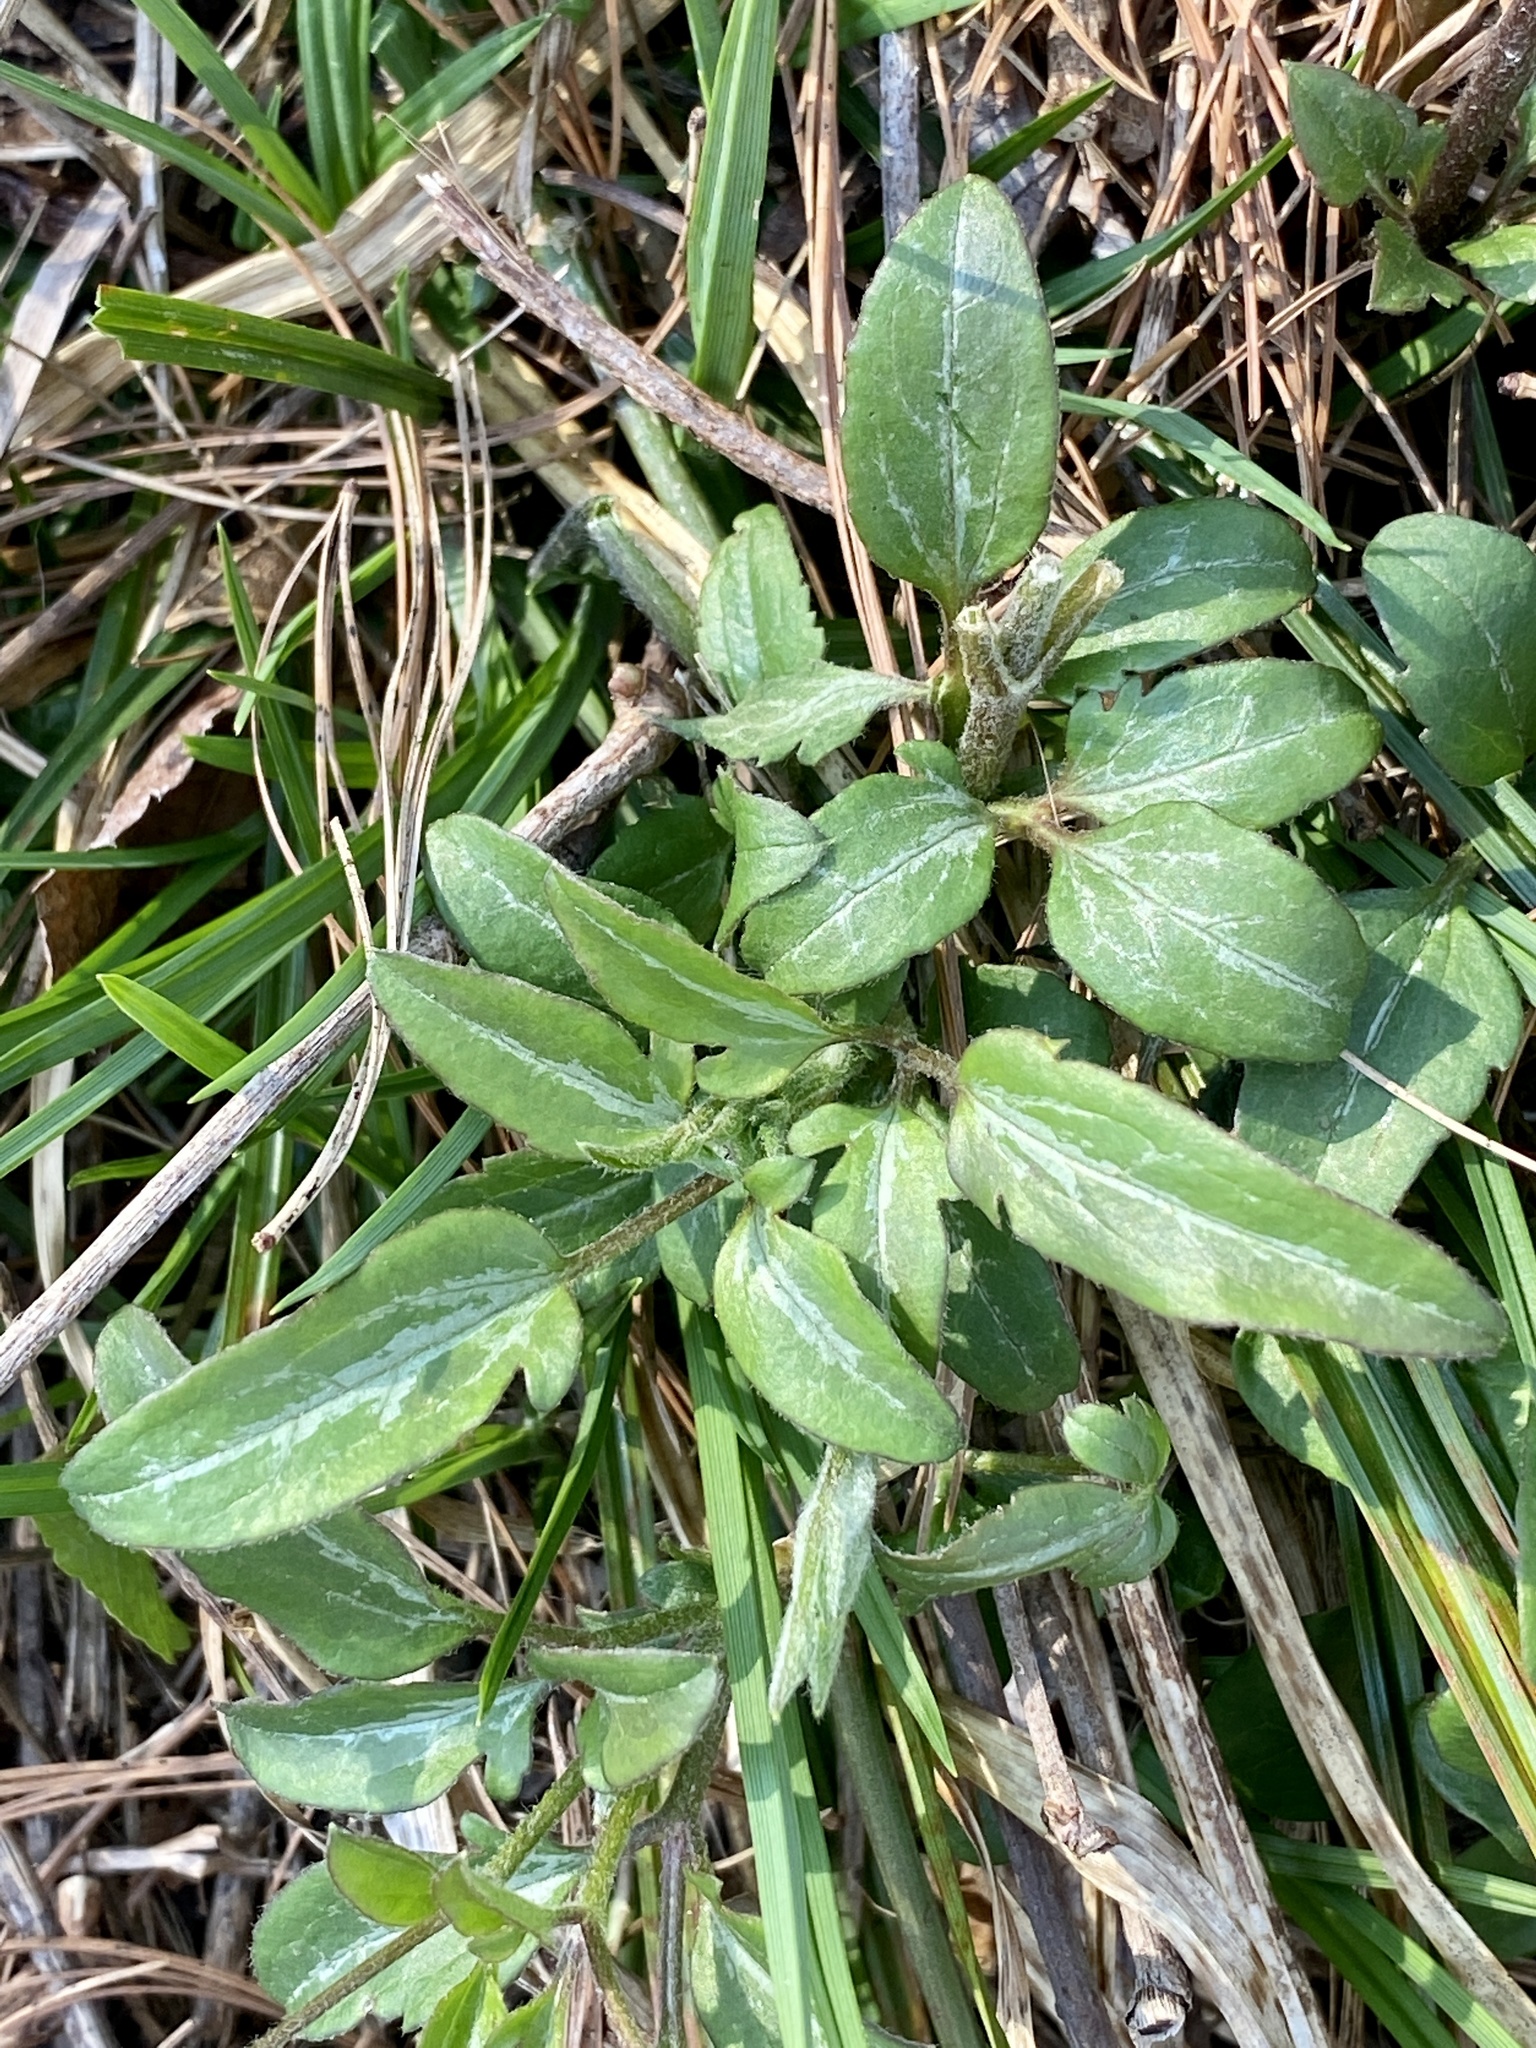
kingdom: Plantae
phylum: Tracheophyta
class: Magnoliopsida
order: Ranunculales
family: Ranunculaceae
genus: Clematis
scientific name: Clematis terniflora
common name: Sweet autumn clematis
